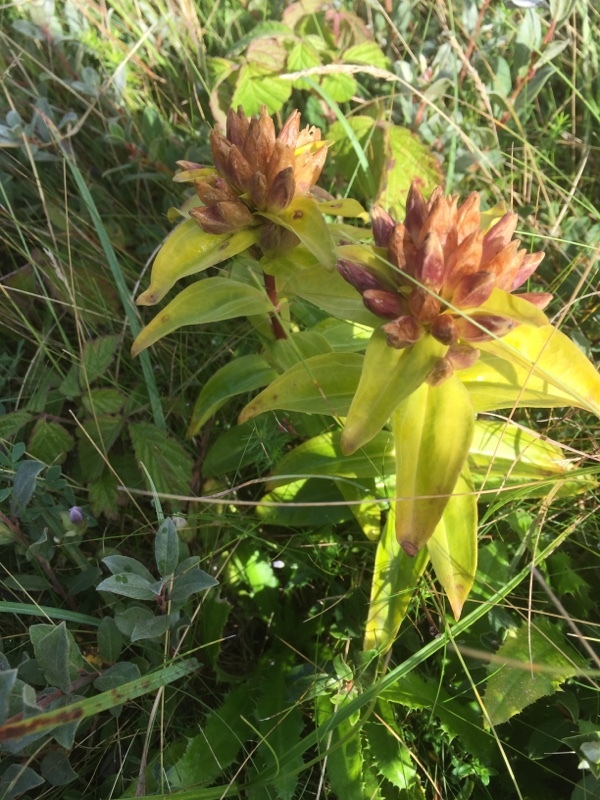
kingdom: Plantae
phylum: Tracheophyta
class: Magnoliopsida
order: Gentianales
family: Gentianaceae
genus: Gentiana
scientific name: Gentiana cruciata
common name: Cross gentian
